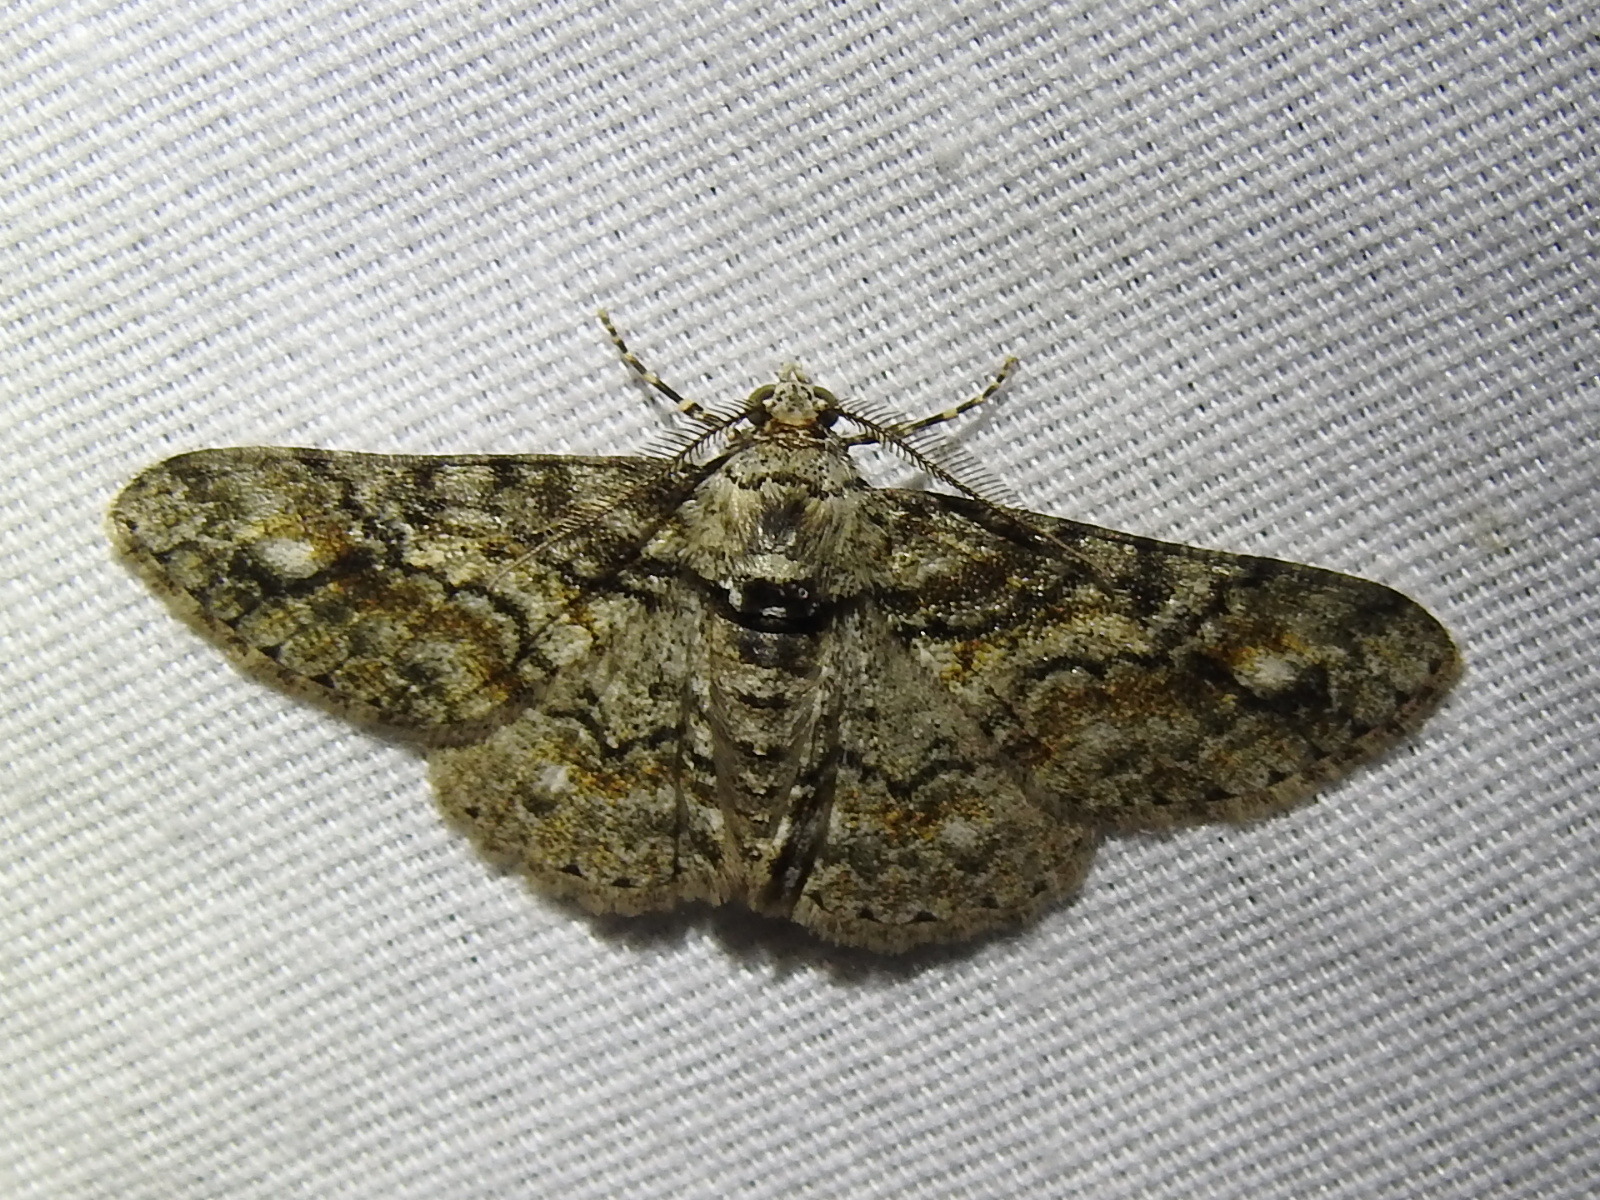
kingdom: Animalia
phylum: Arthropoda
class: Insecta
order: Lepidoptera
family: Geometridae
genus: Cleora
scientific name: Cleora sublunaria
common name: Double-lined gray
